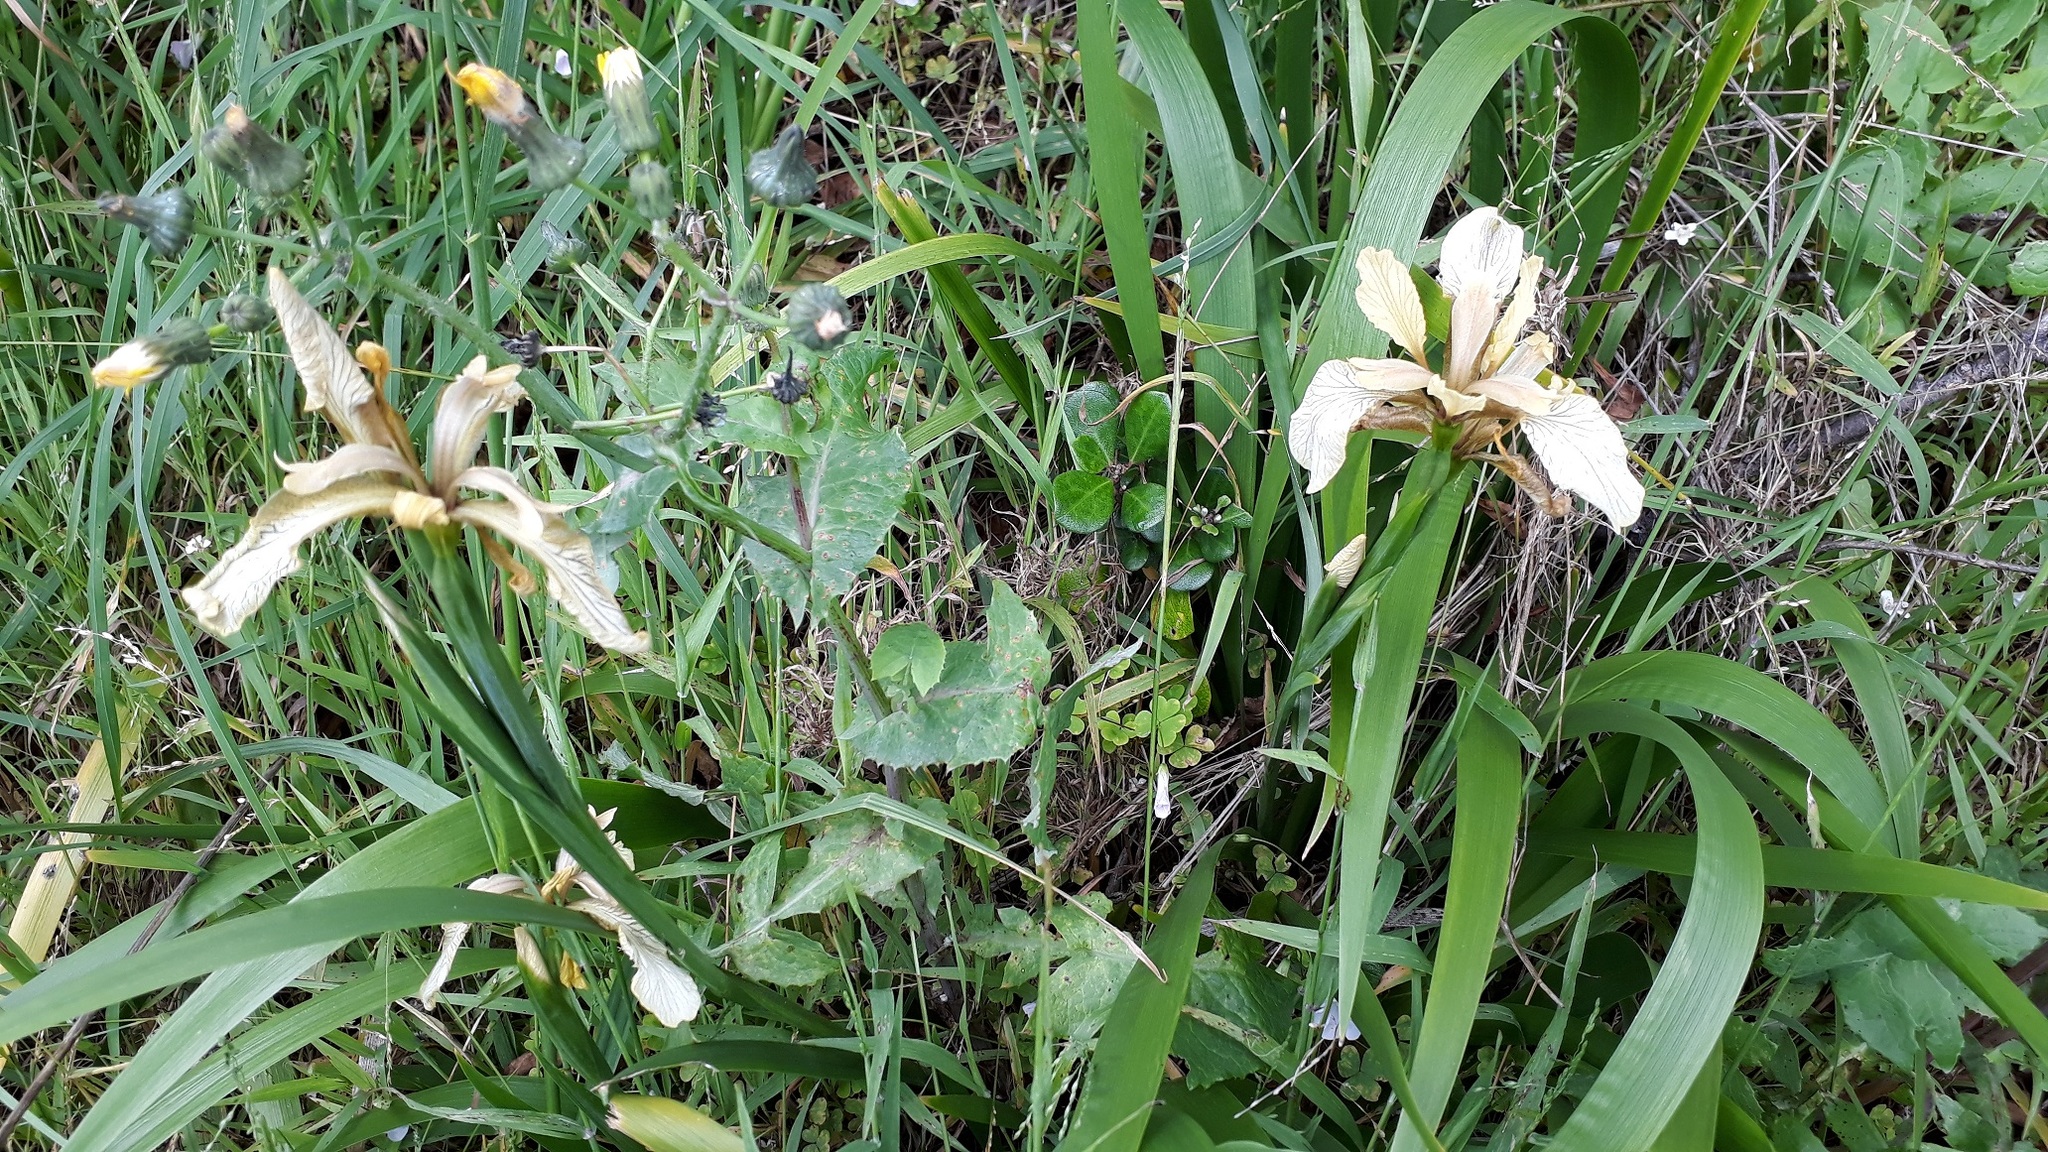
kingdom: Plantae
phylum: Tracheophyta
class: Liliopsida
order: Asparagales
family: Iridaceae
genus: Iris
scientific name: Iris foetidissima
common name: Stinking iris
